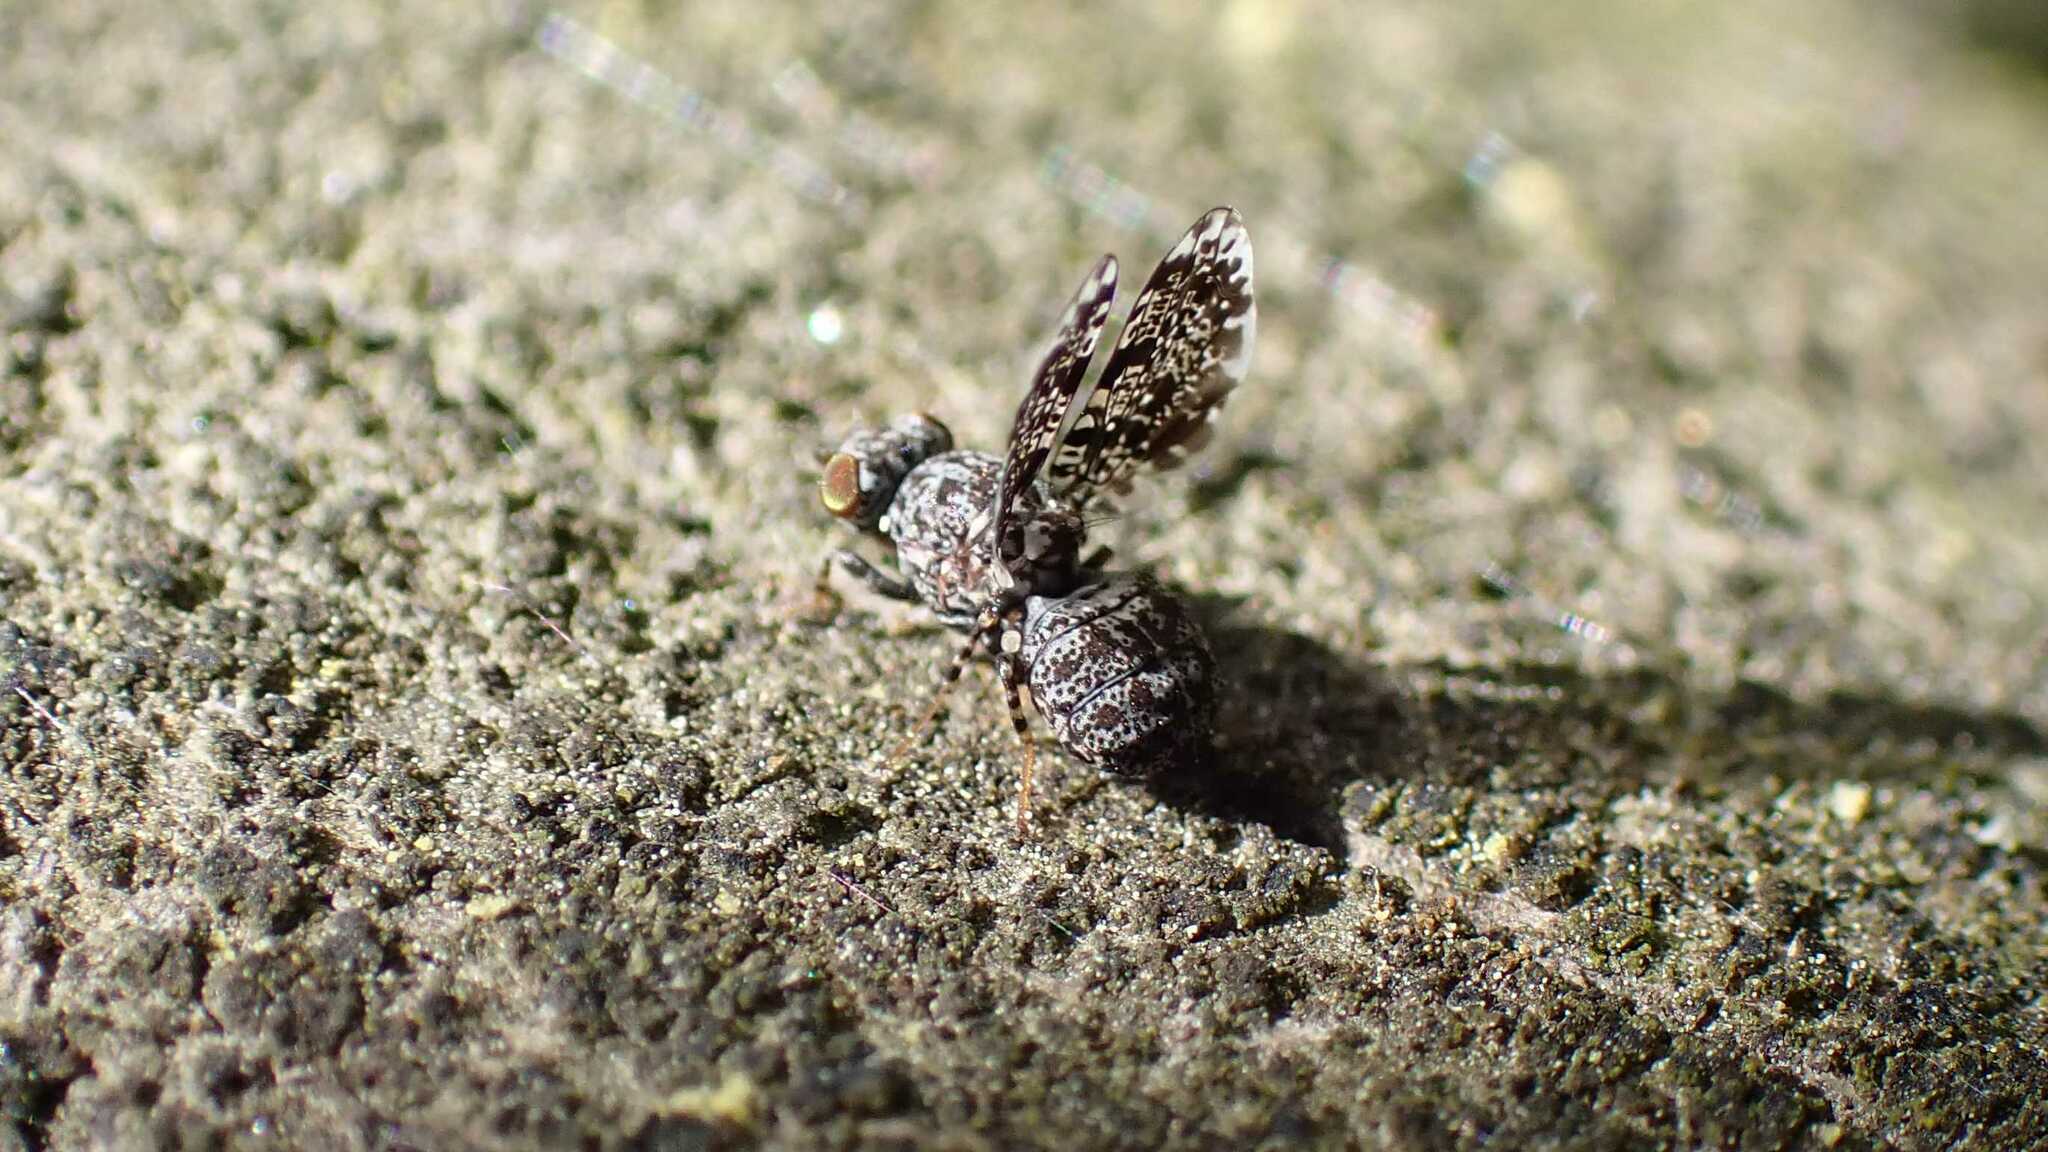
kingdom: Animalia
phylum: Arthropoda
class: Insecta
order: Diptera
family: Ulidiidae
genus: Callopistromyia
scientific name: Callopistromyia annulipes
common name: Peacock fly
